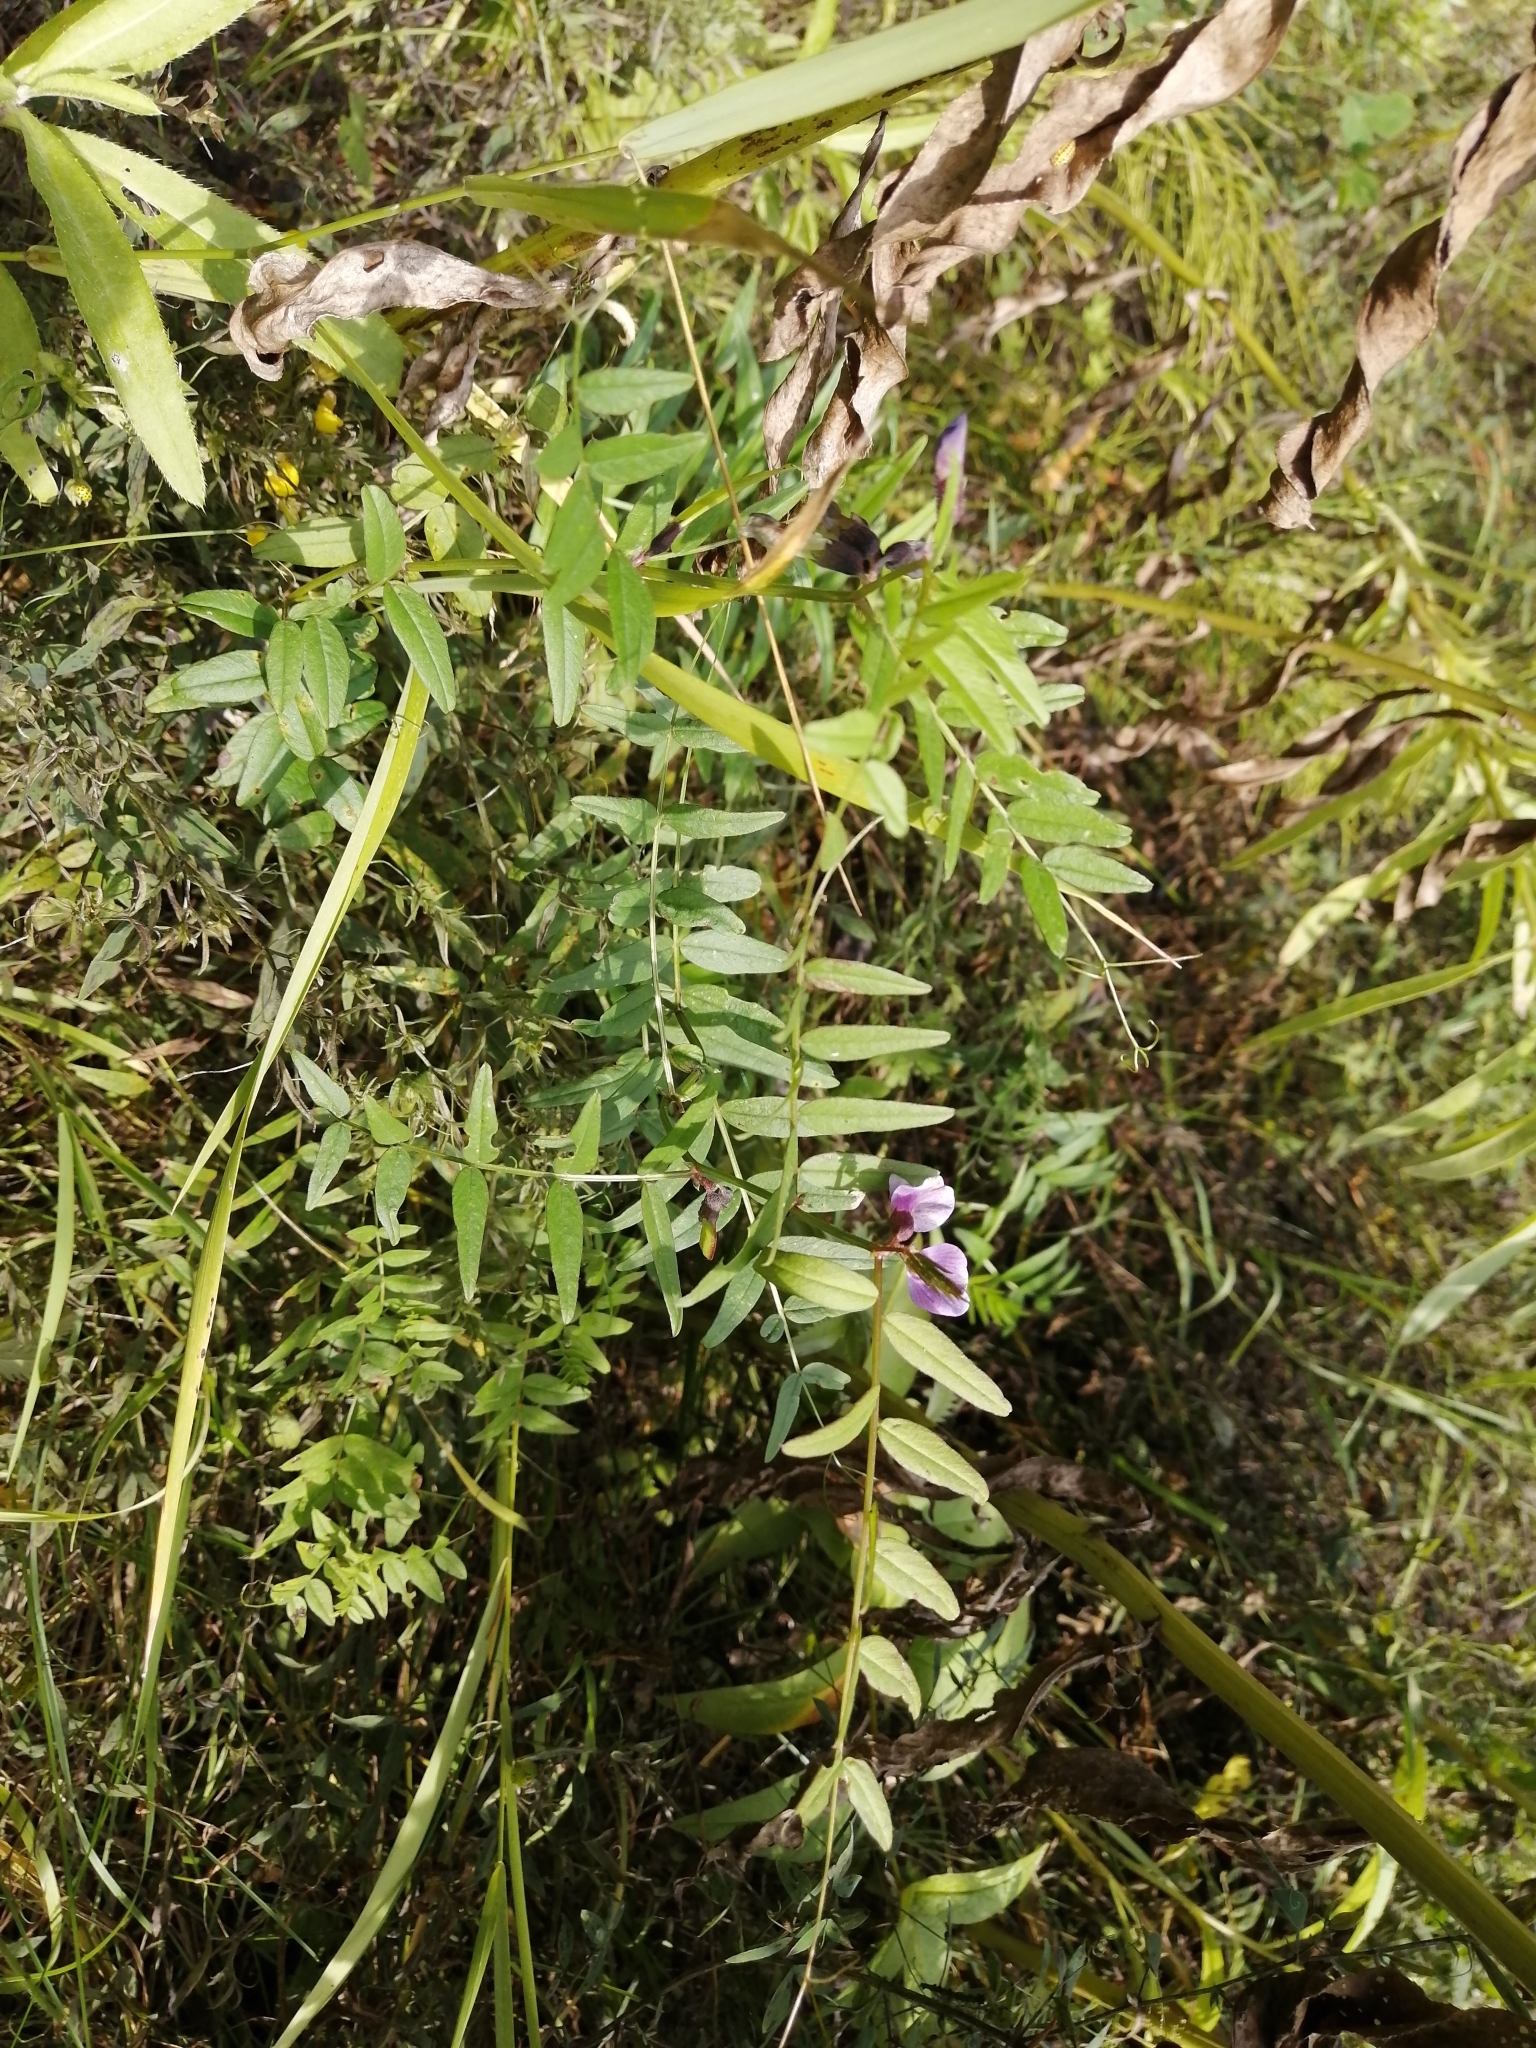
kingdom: Plantae
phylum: Tracheophyta
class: Magnoliopsida
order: Fabales
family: Fabaceae
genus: Vicia
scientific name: Vicia sepium
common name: Bush vetch
